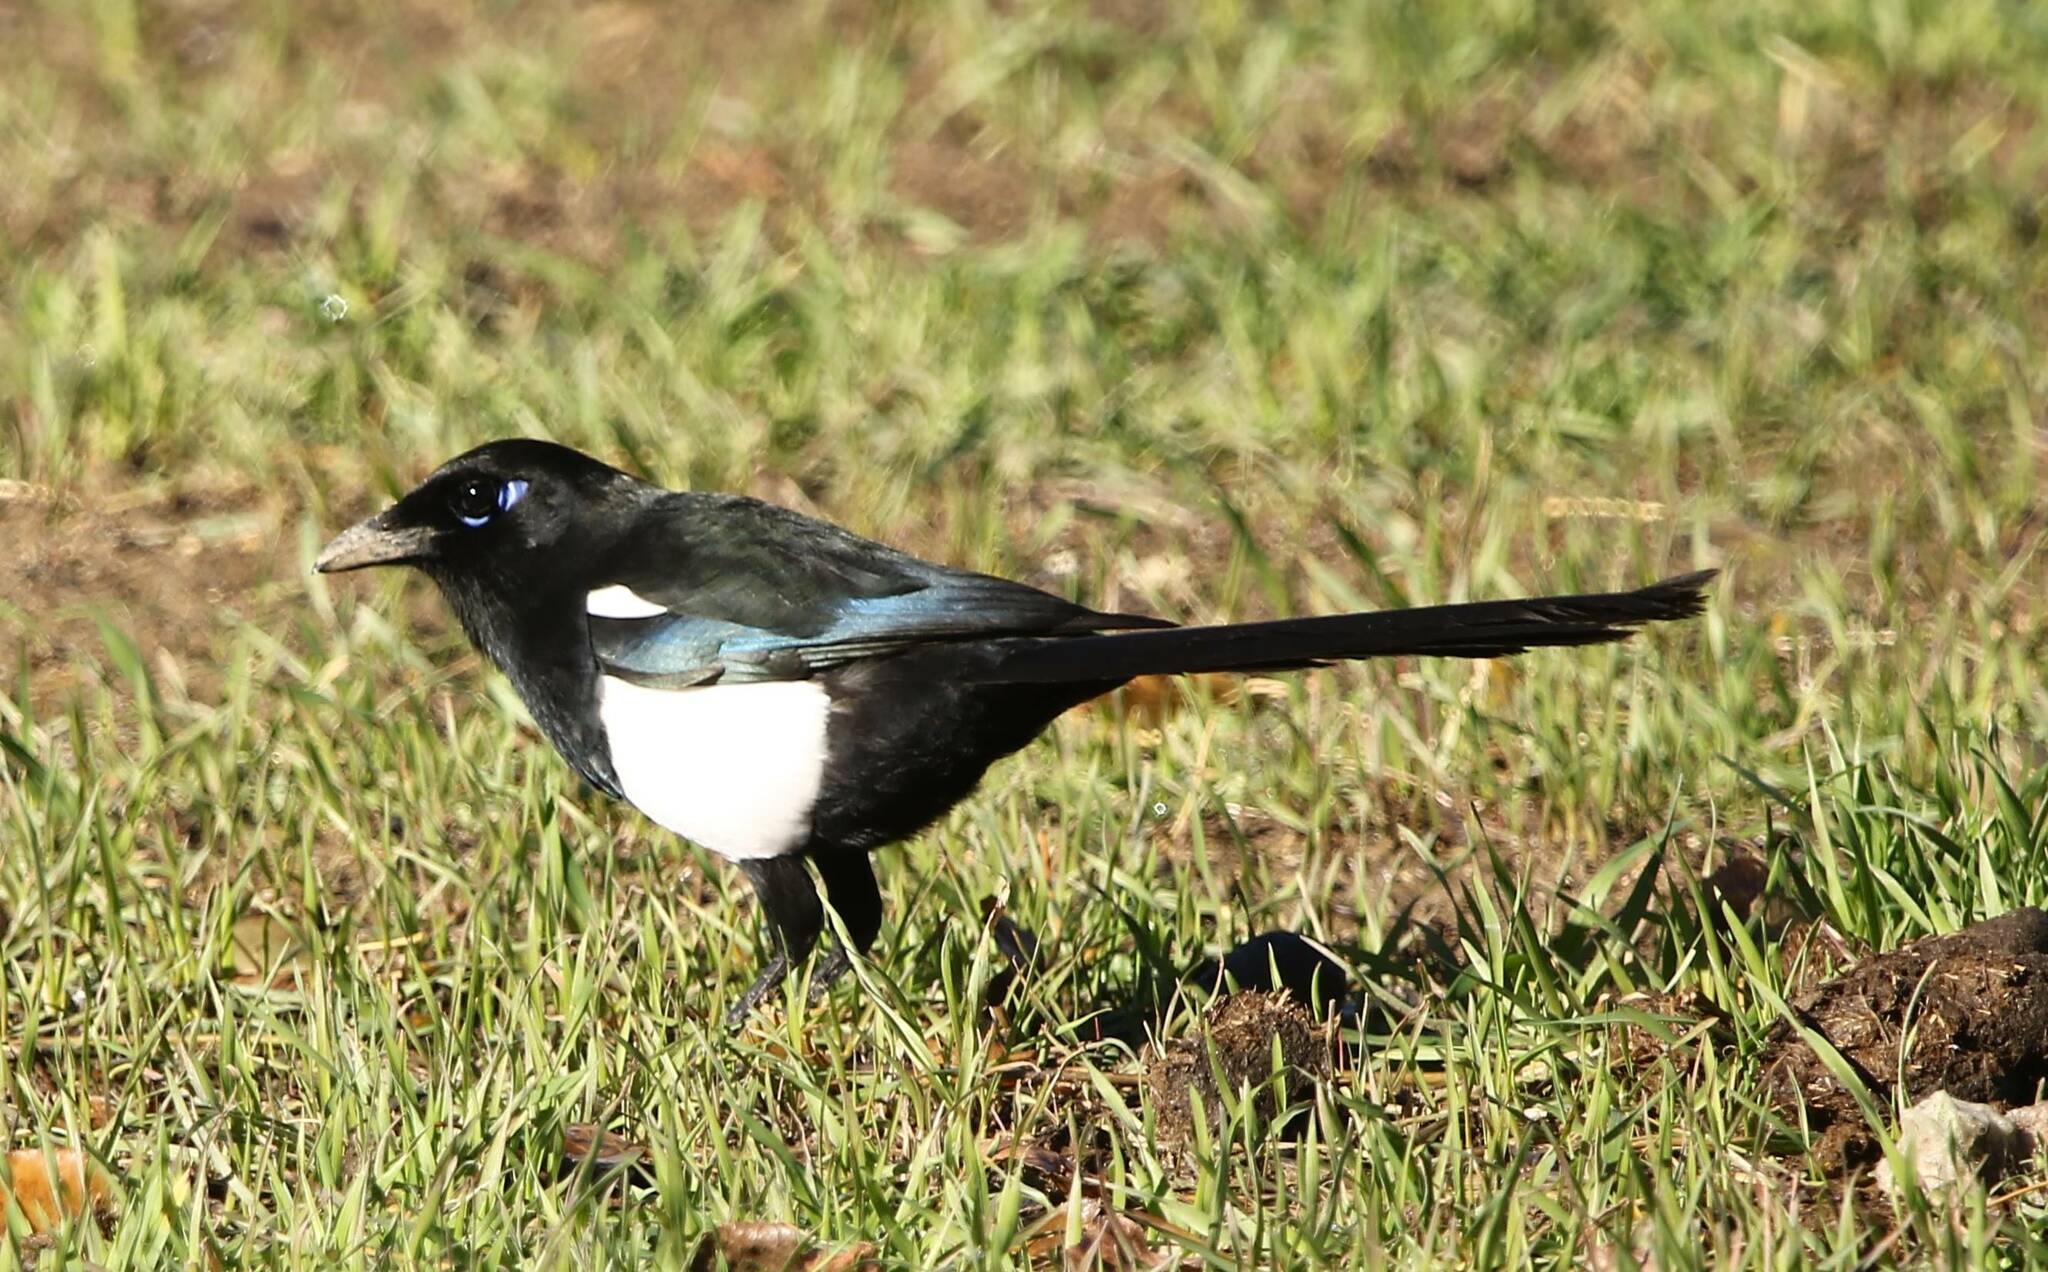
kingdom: Animalia
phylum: Chordata
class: Aves
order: Passeriformes
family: Corvidae
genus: Pica
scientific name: Pica mauritanica
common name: Maghreb magpie
